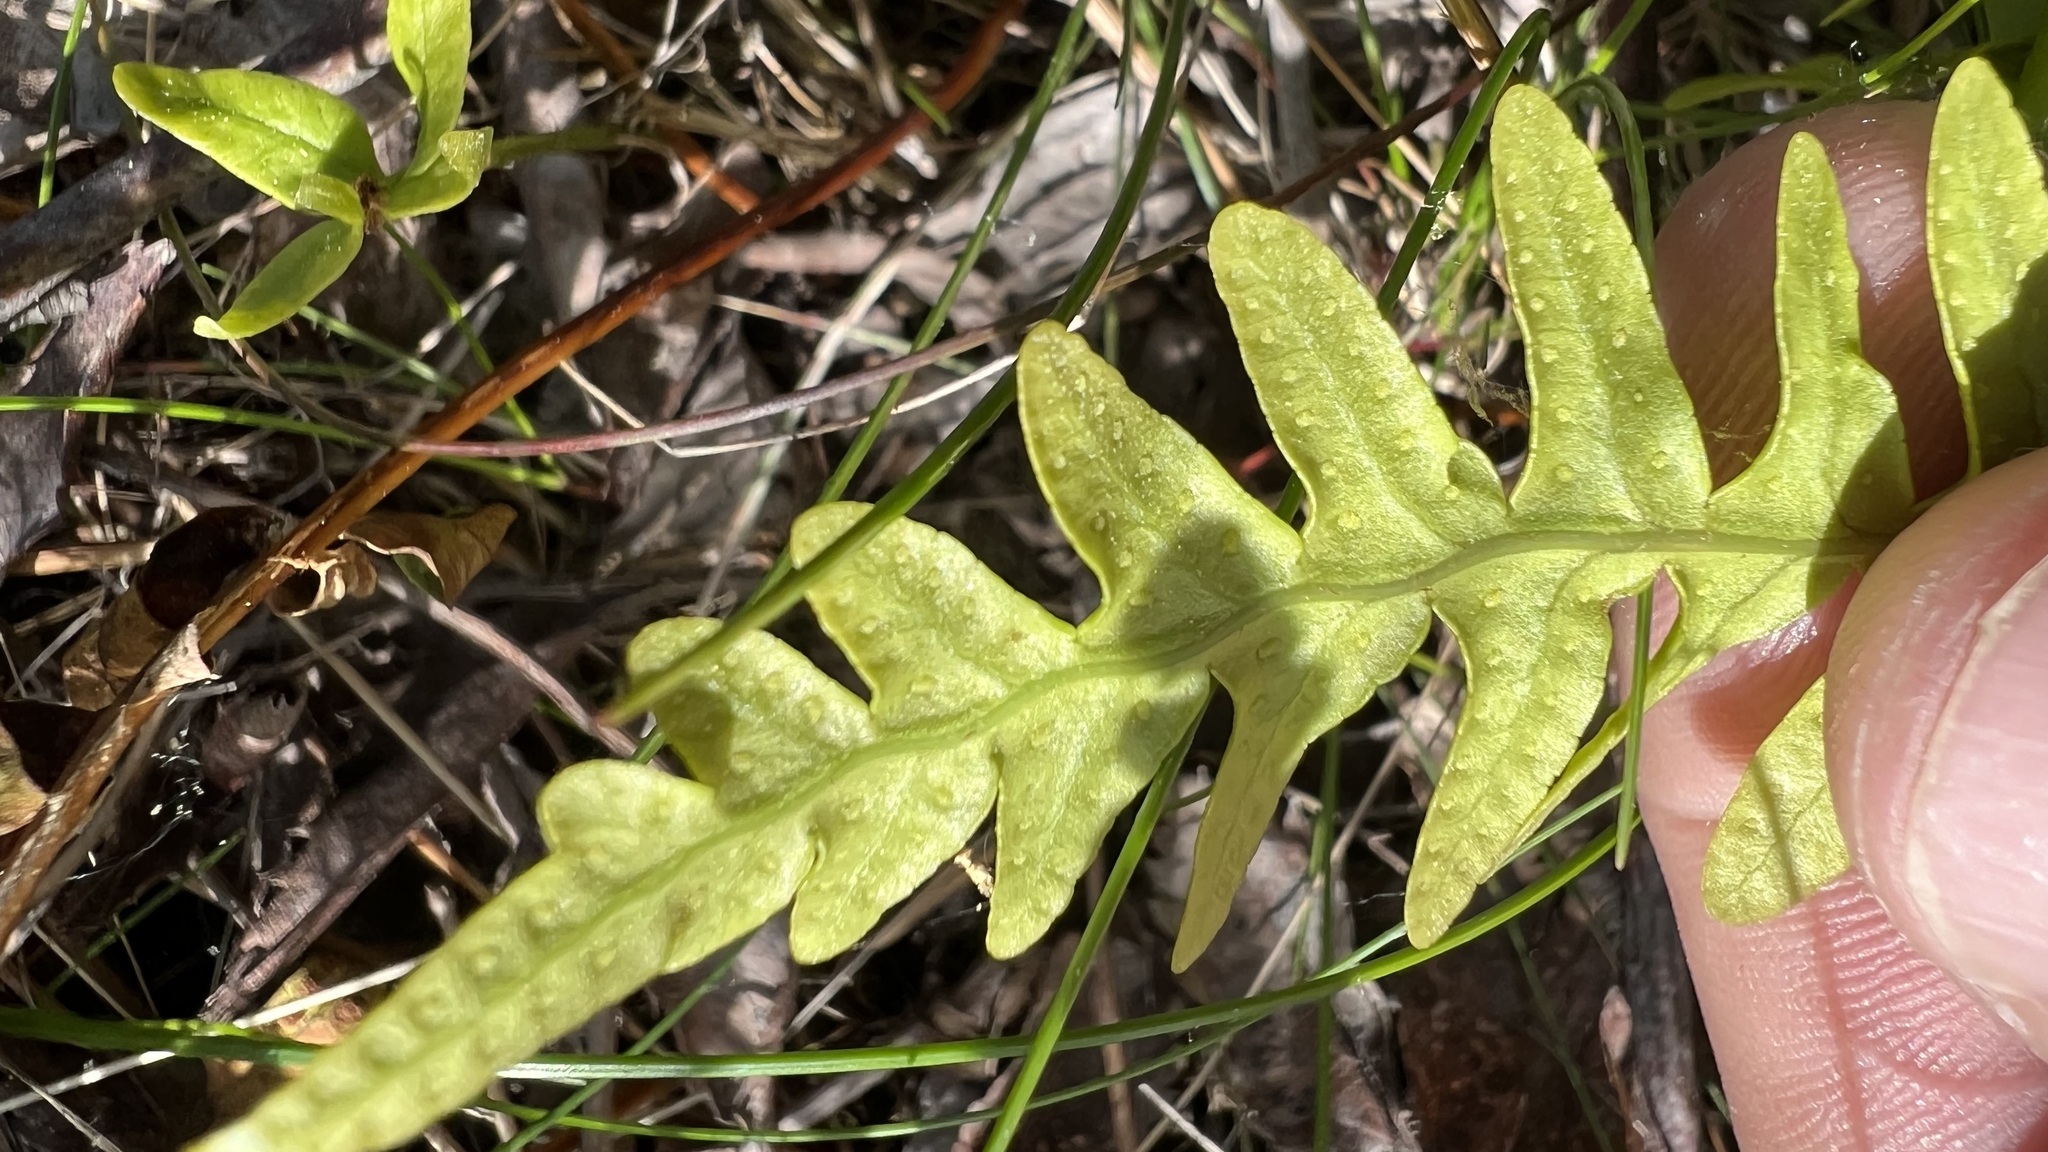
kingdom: Plantae
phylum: Tracheophyta
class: Polypodiopsida
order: Polypodiales
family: Polypodiaceae
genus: Polypodium
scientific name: Polypodium vulgare
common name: Common polypody
